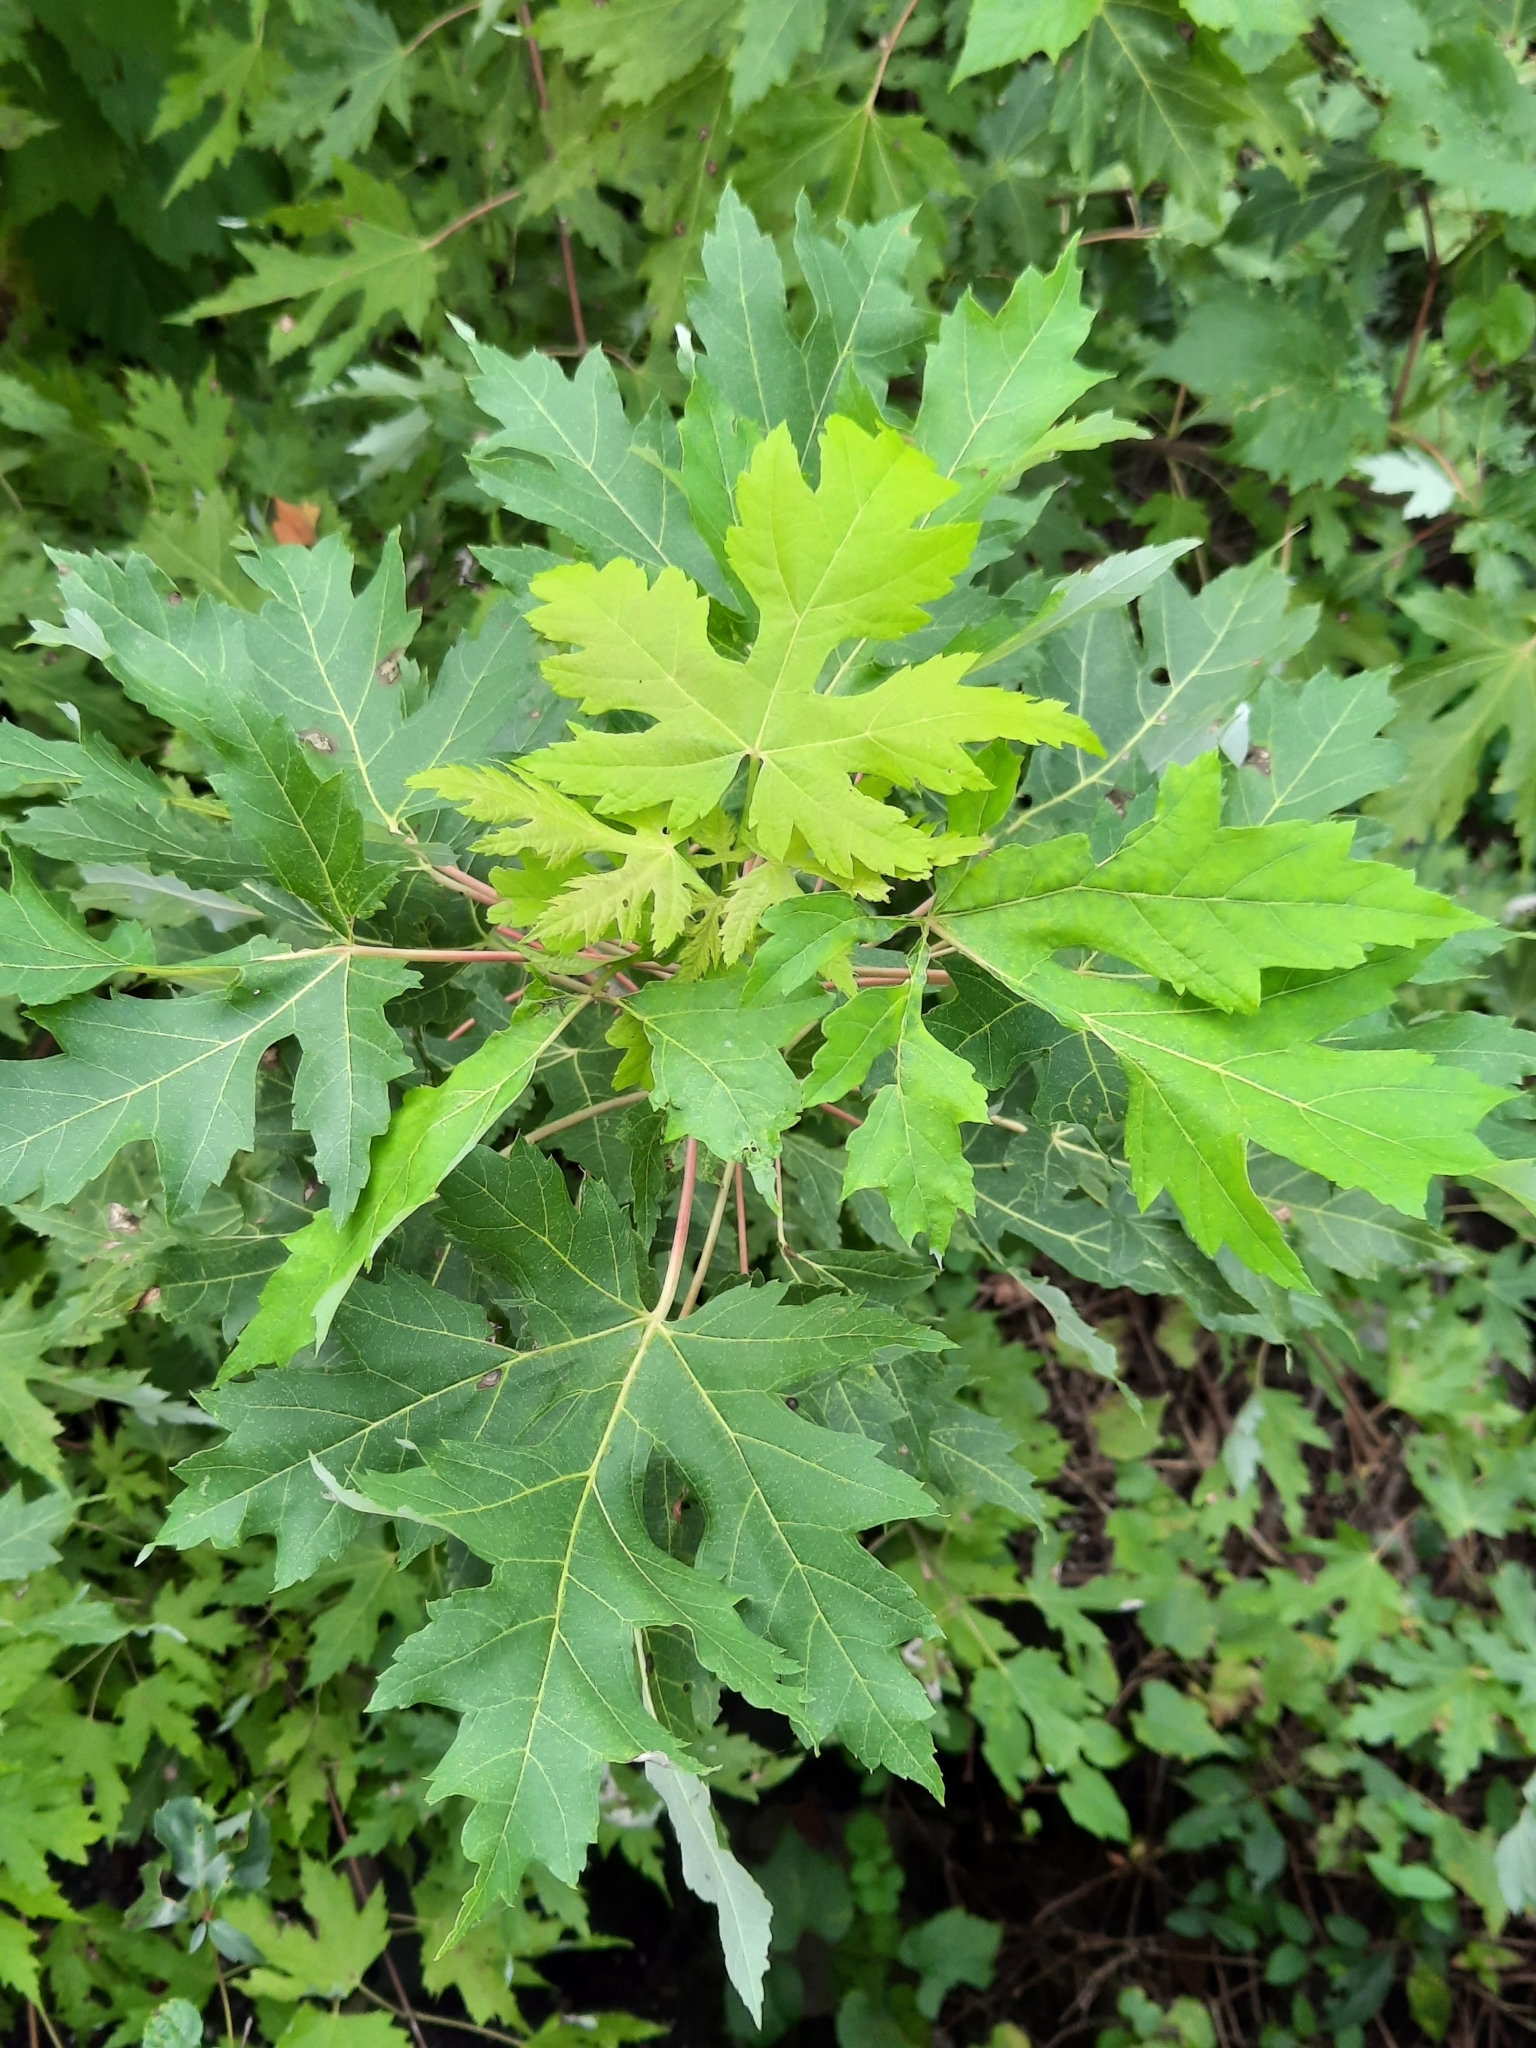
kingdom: Plantae
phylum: Tracheophyta
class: Magnoliopsida
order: Sapindales
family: Sapindaceae
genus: Acer
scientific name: Acer saccharinum
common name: Silver maple
